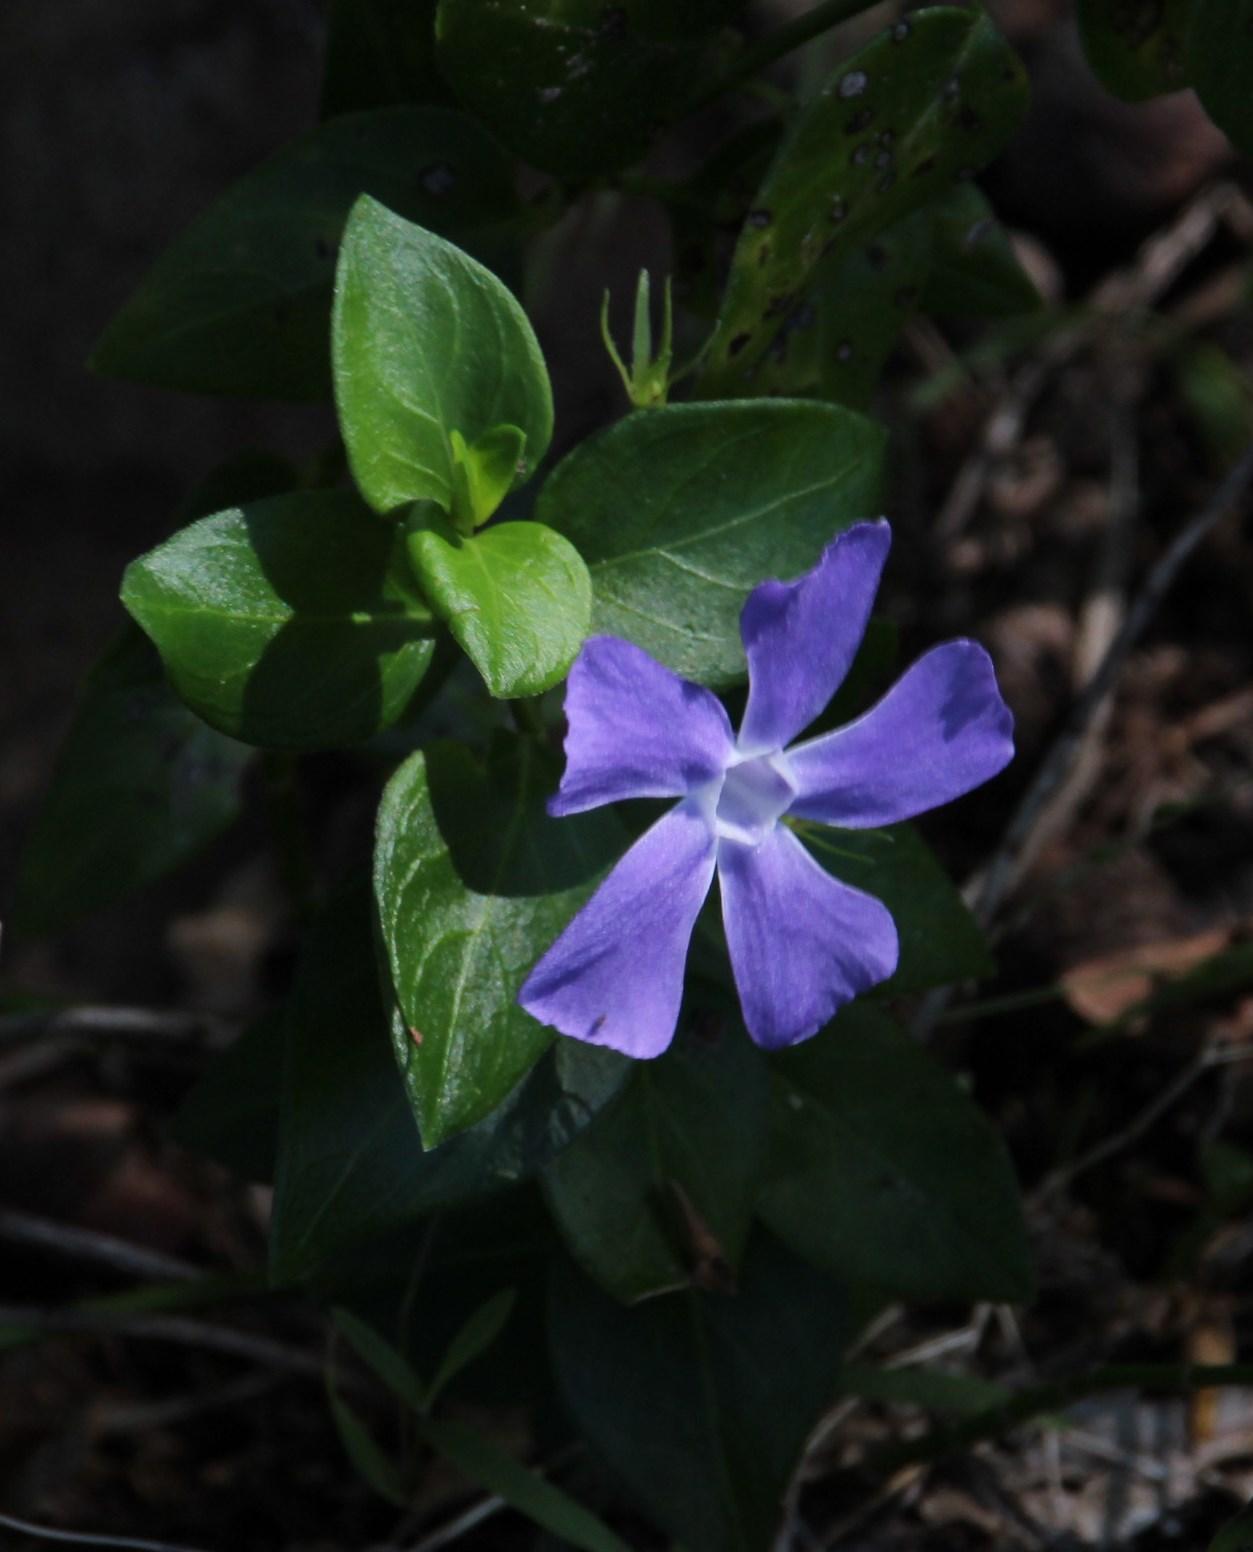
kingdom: Plantae
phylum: Tracheophyta
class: Magnoliopsida
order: Gentianales
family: Apocynaceae
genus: Vinca
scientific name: Vinca major
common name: Greater periwinkle
